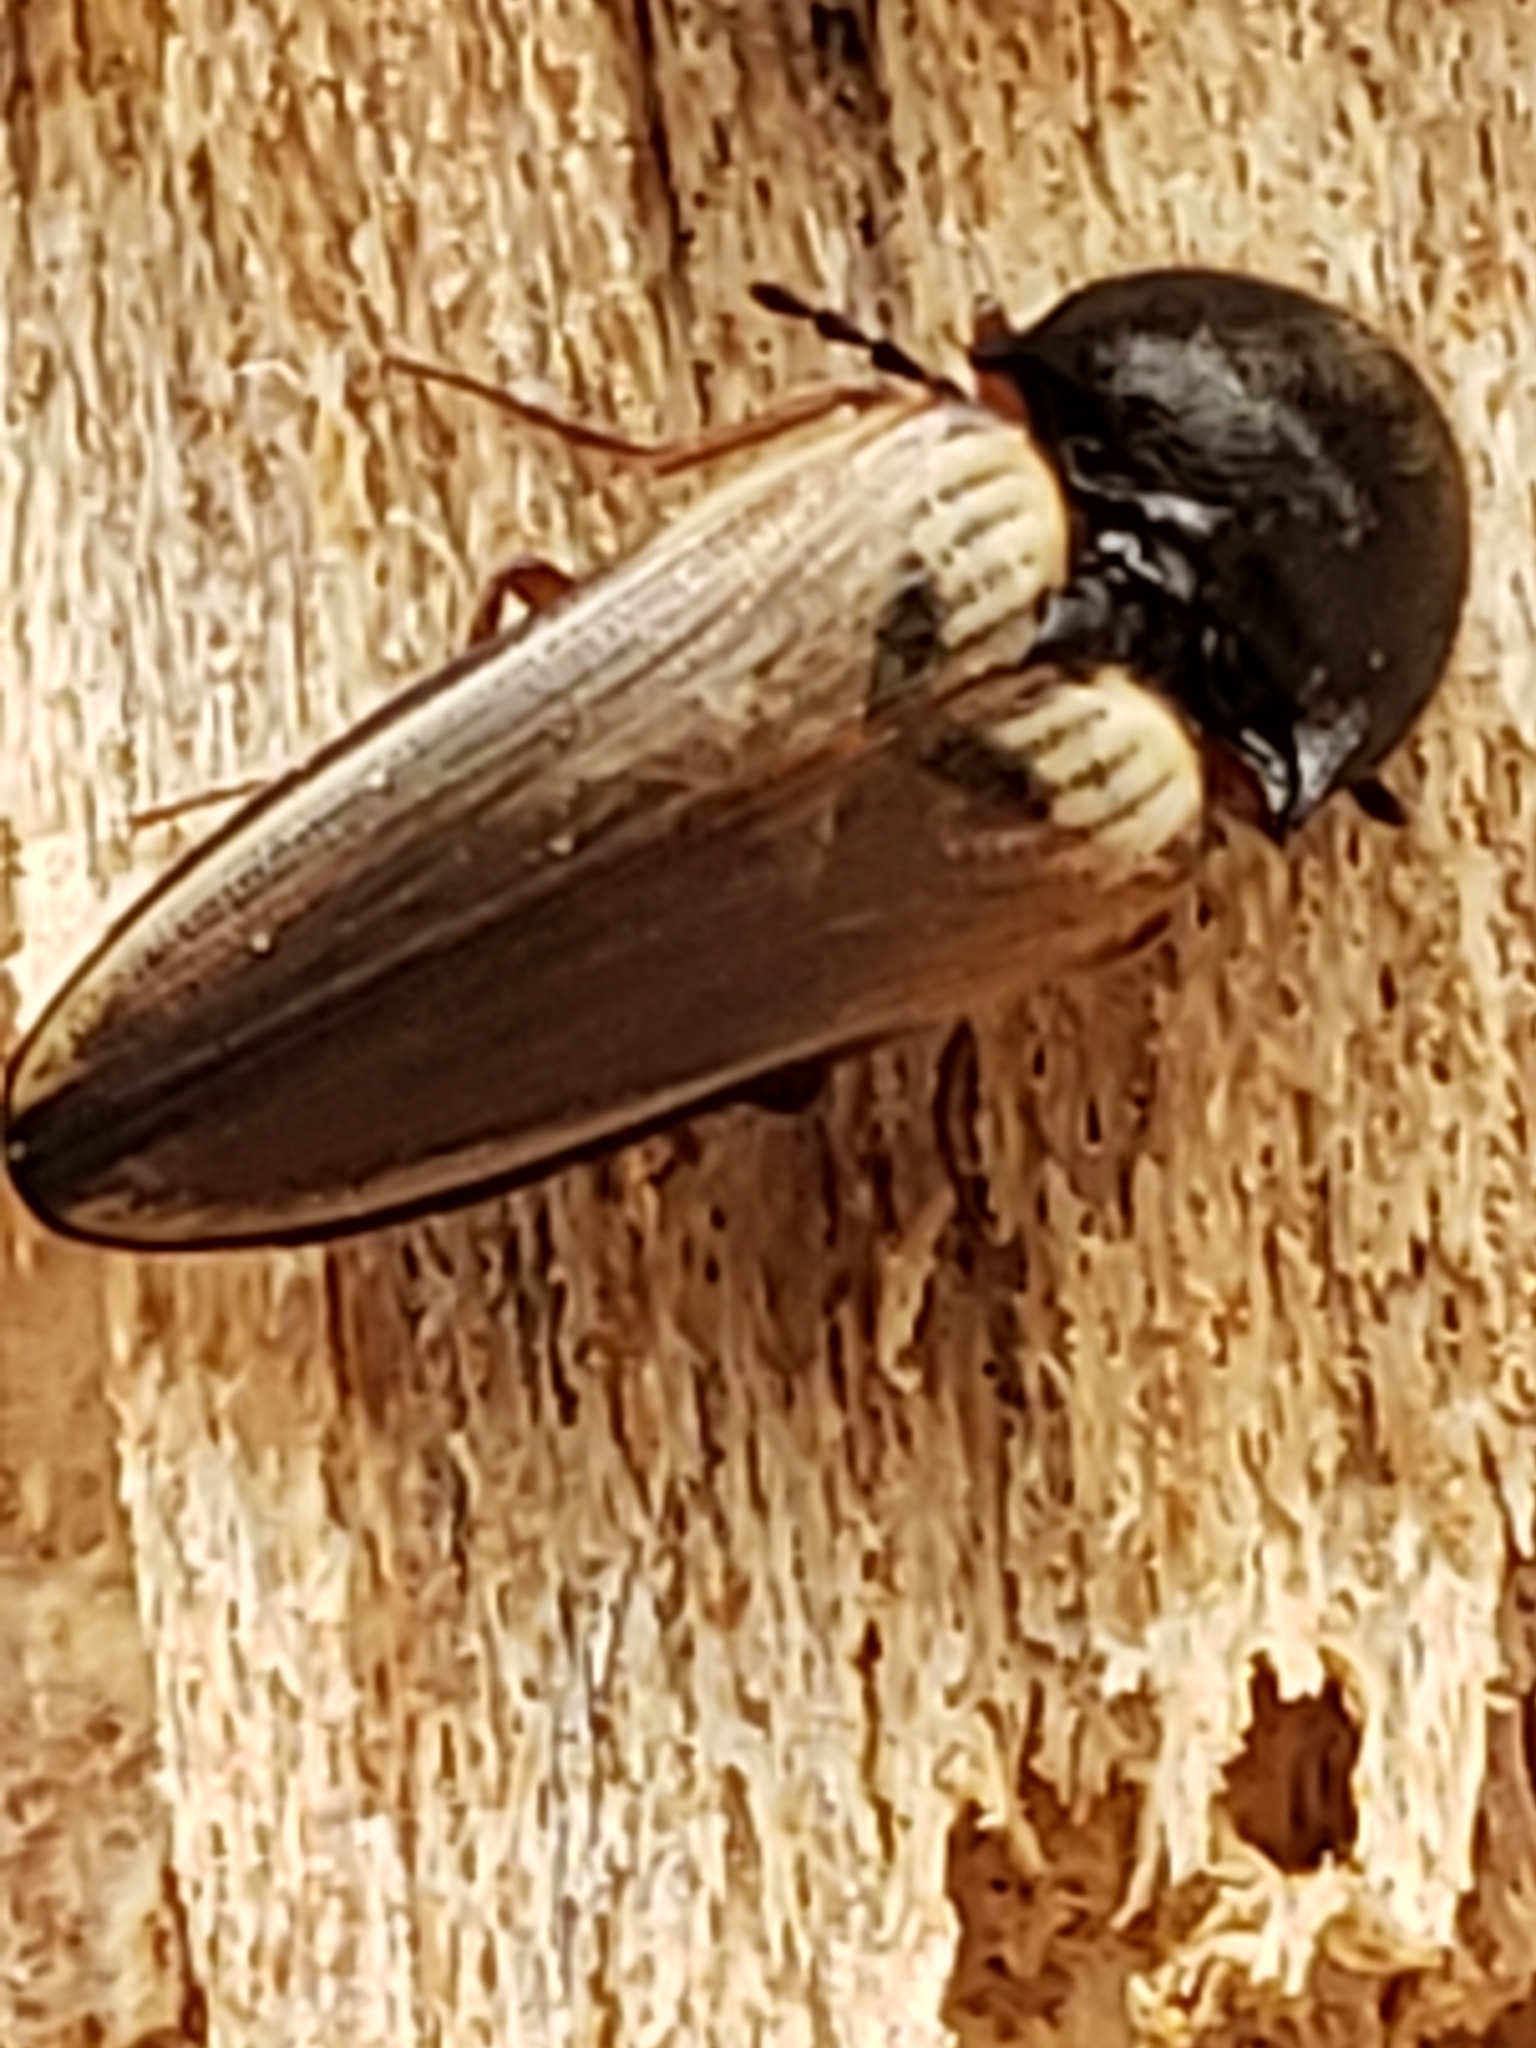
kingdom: Animalia
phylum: Arthropoda
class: Insecta
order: Coleoptera
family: Elateridae
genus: Ampedus
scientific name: Ampedus nigricollis
